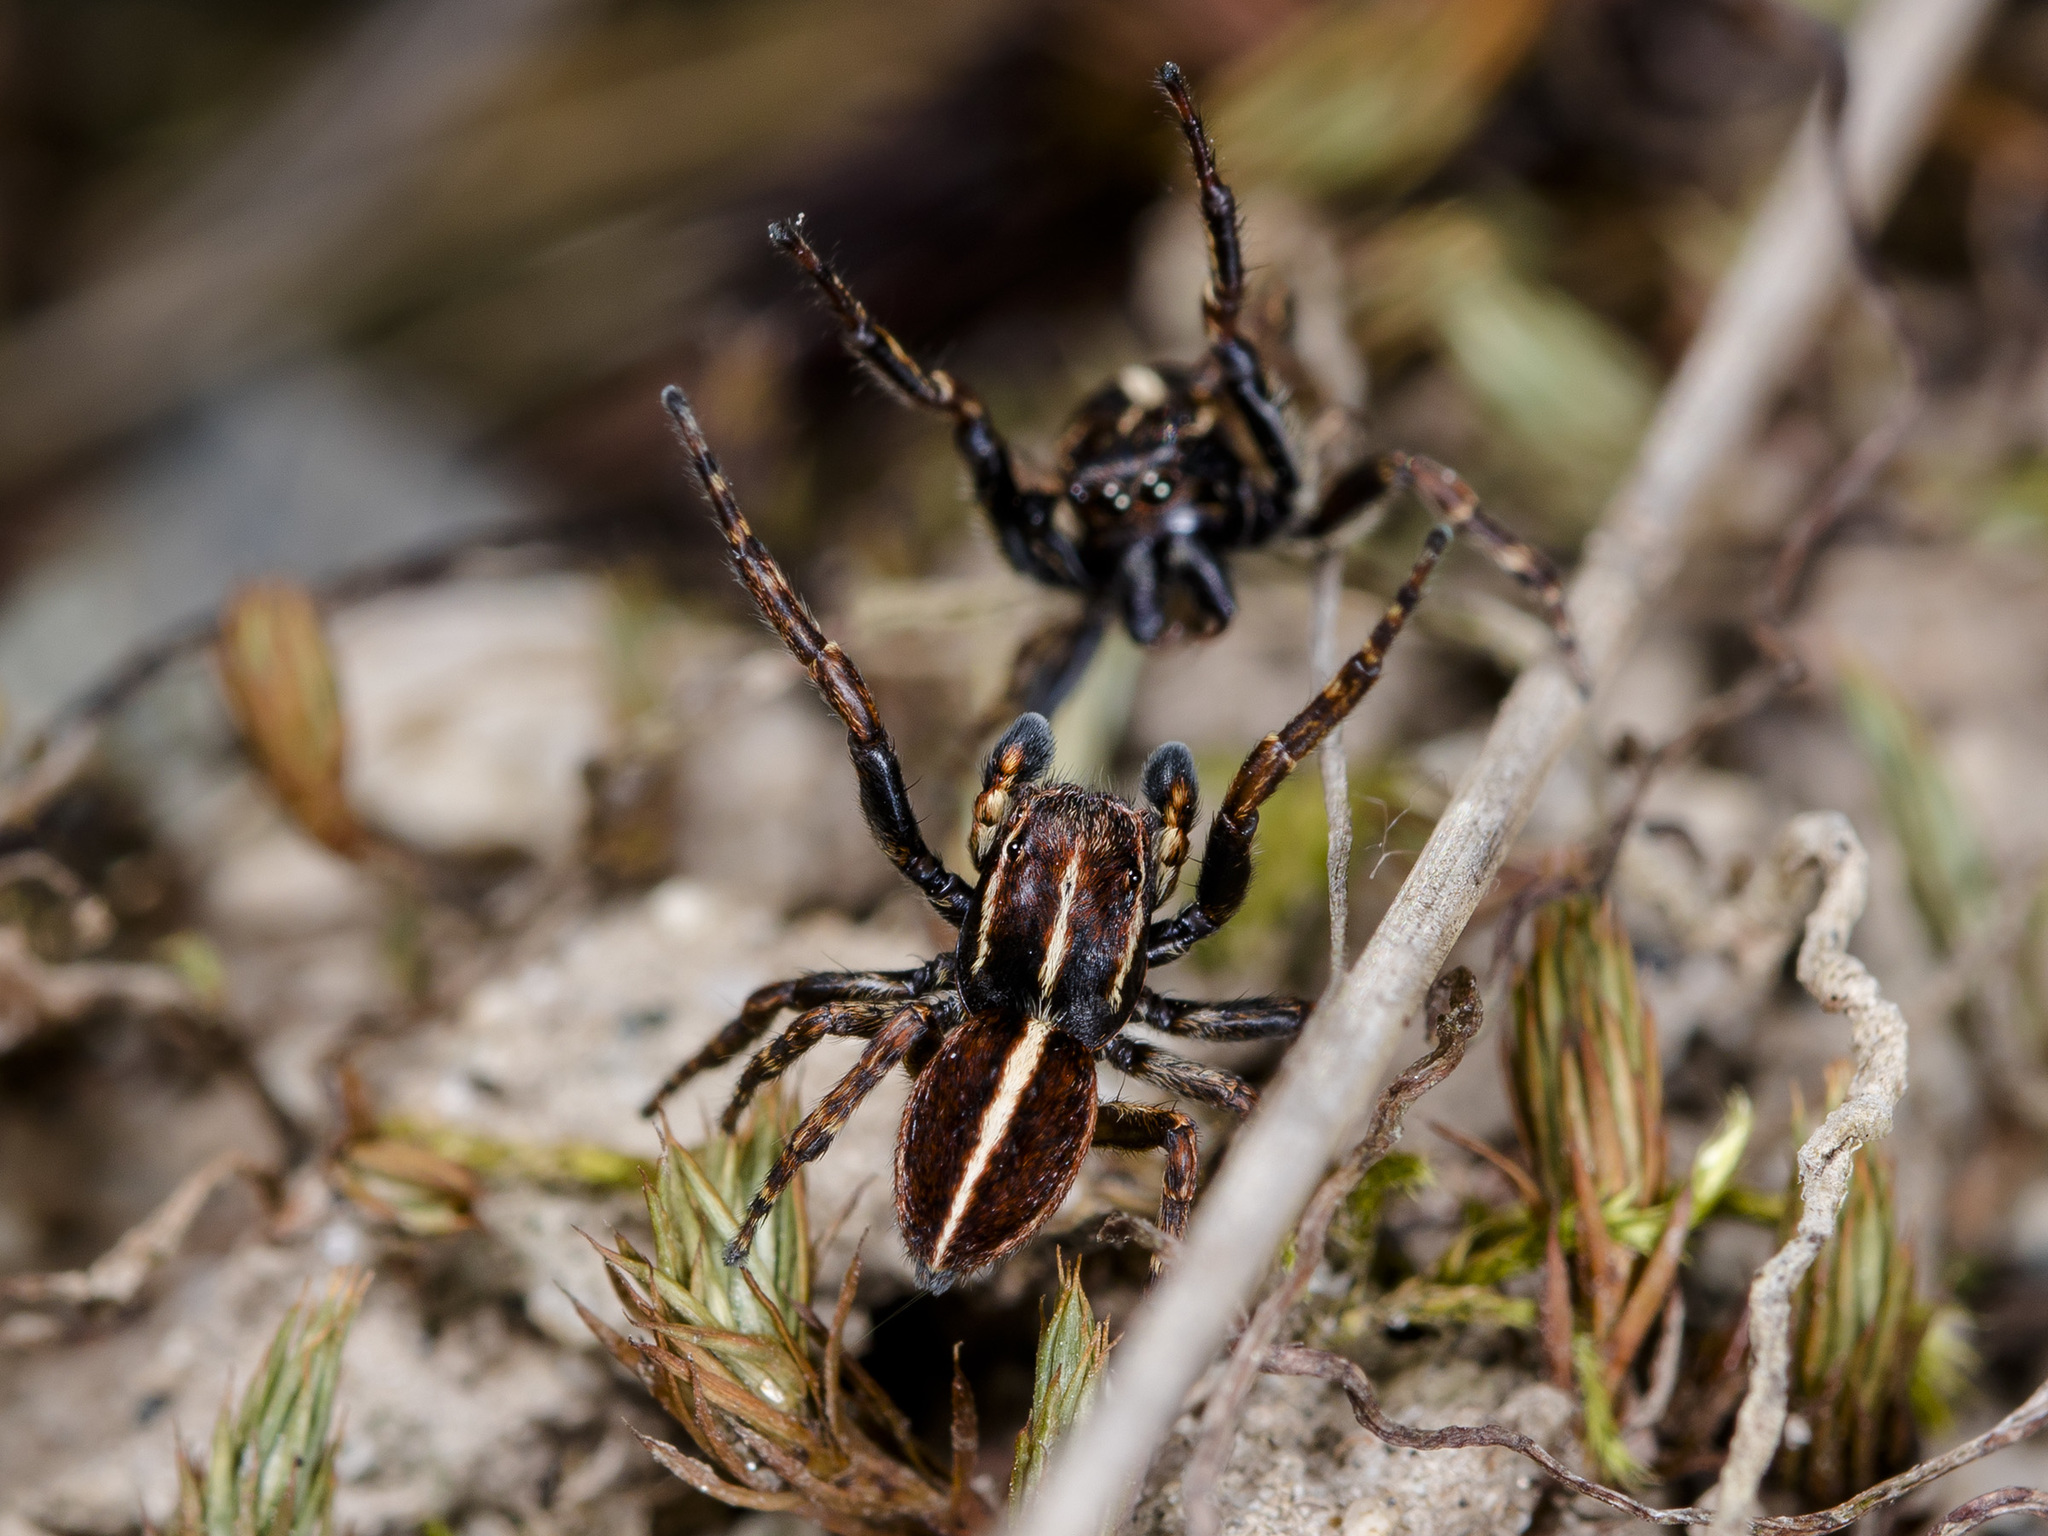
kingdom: Animalia
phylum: Arthropoda
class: Arachnida
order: Araneae
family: Salticidae
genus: Attulus
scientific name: Attulus monstrabilis
